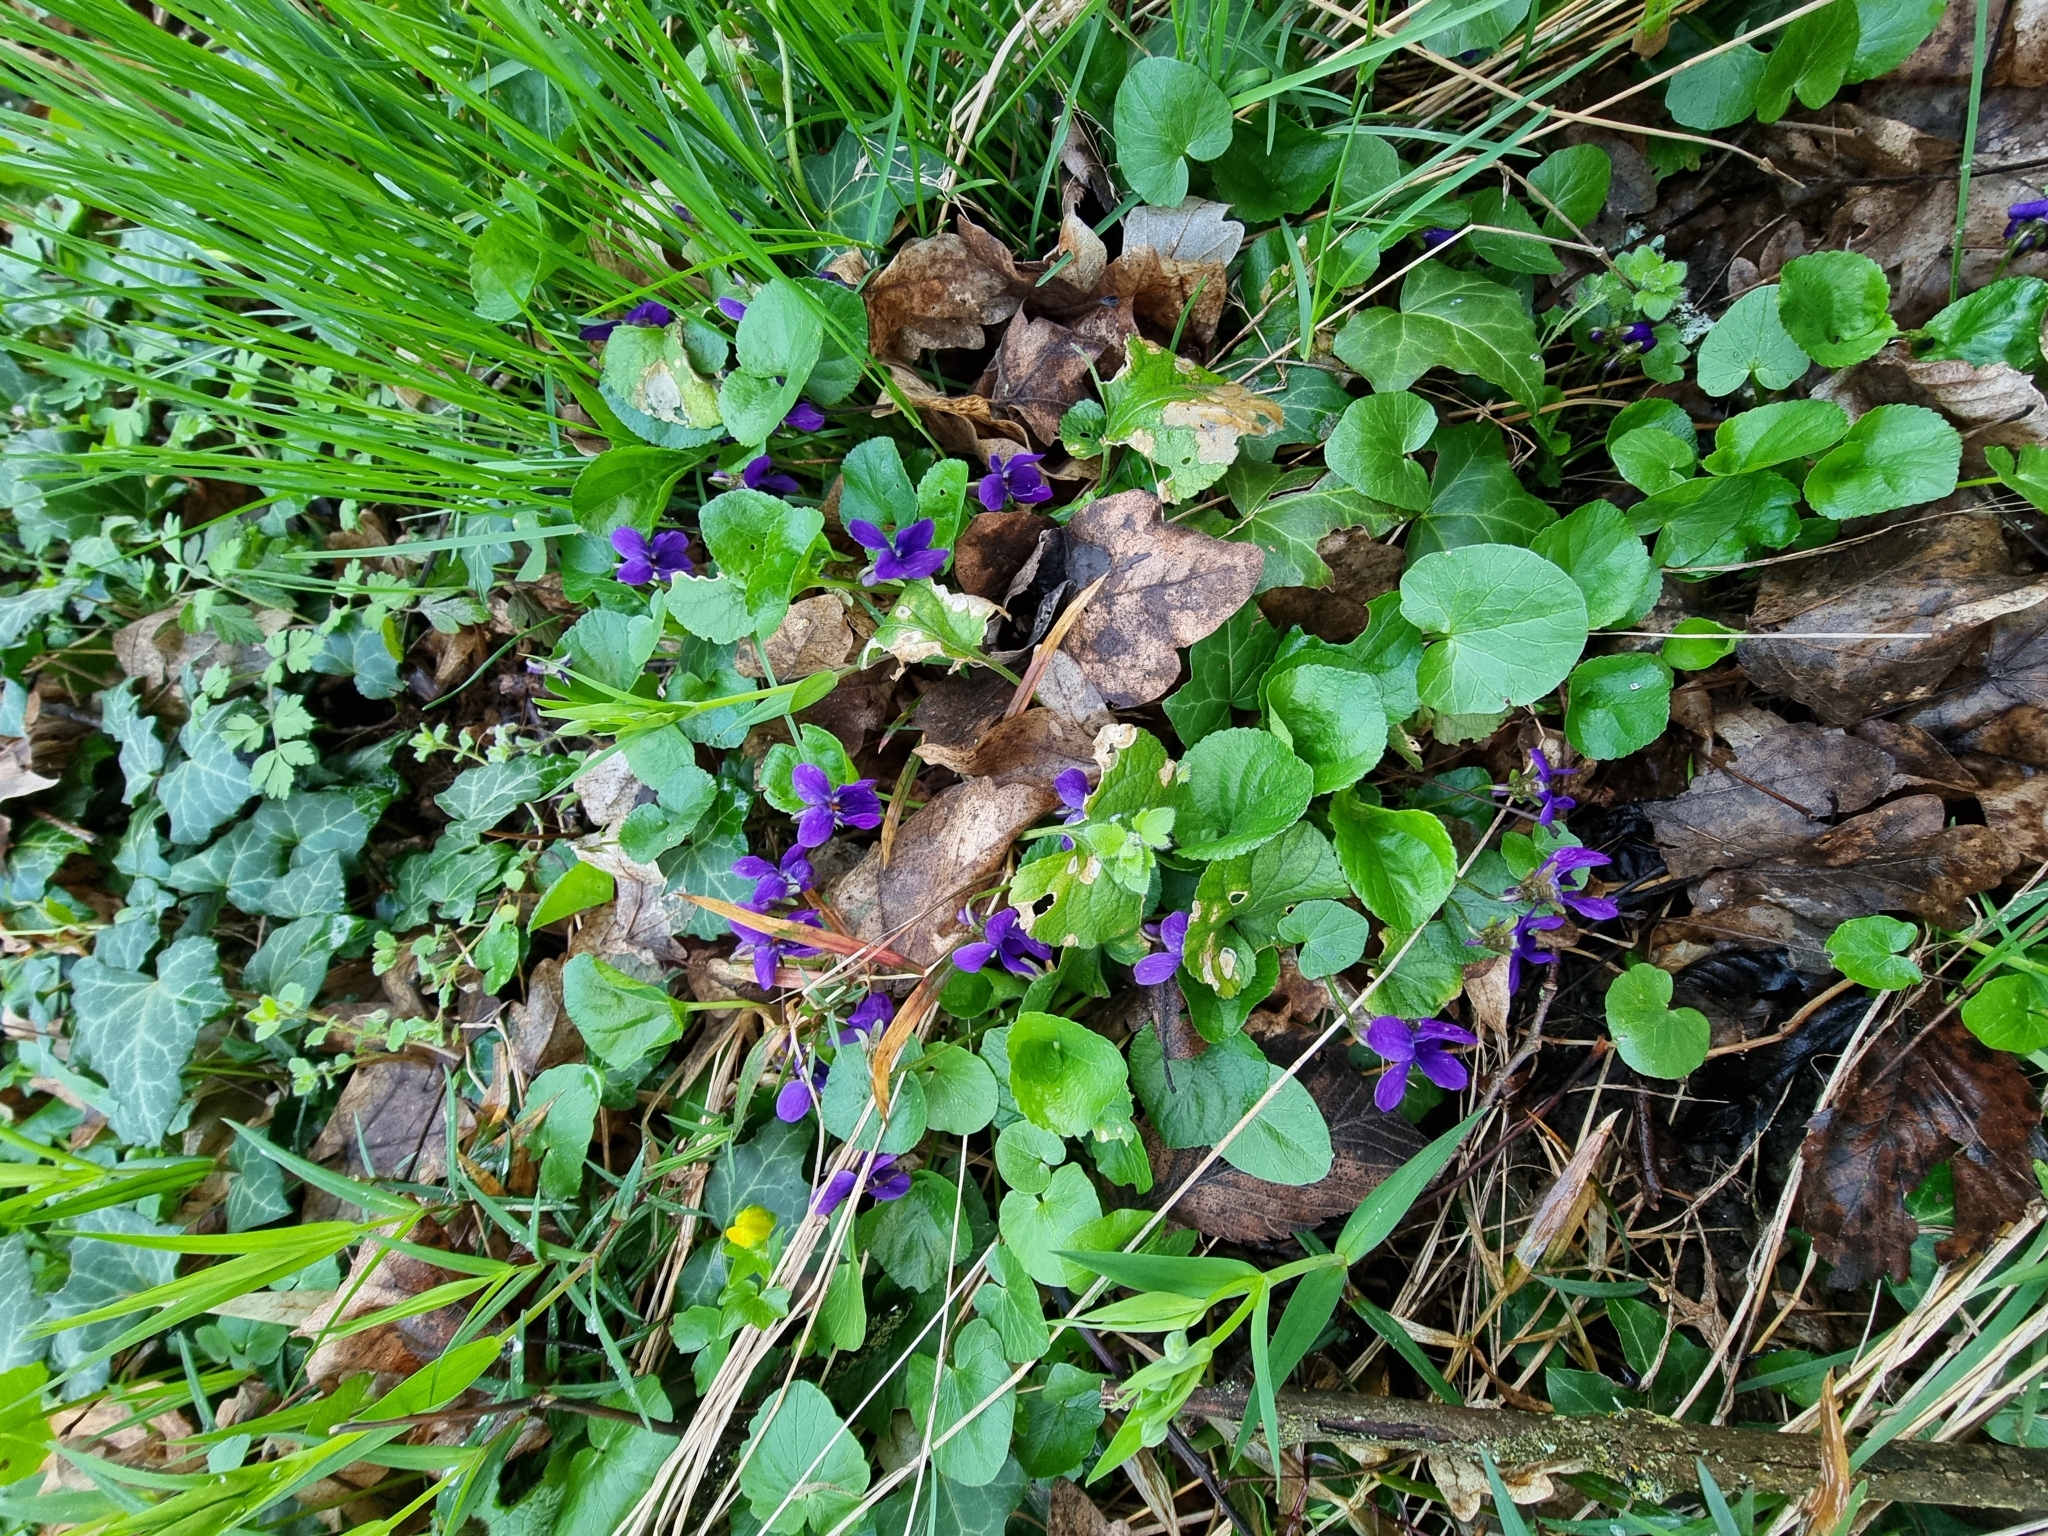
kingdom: Plantae
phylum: Tracheophyta
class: Magnoliopsida
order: Malpighiales
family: Violaceae
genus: Viola
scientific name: Viola odorata
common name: Sweet violet
